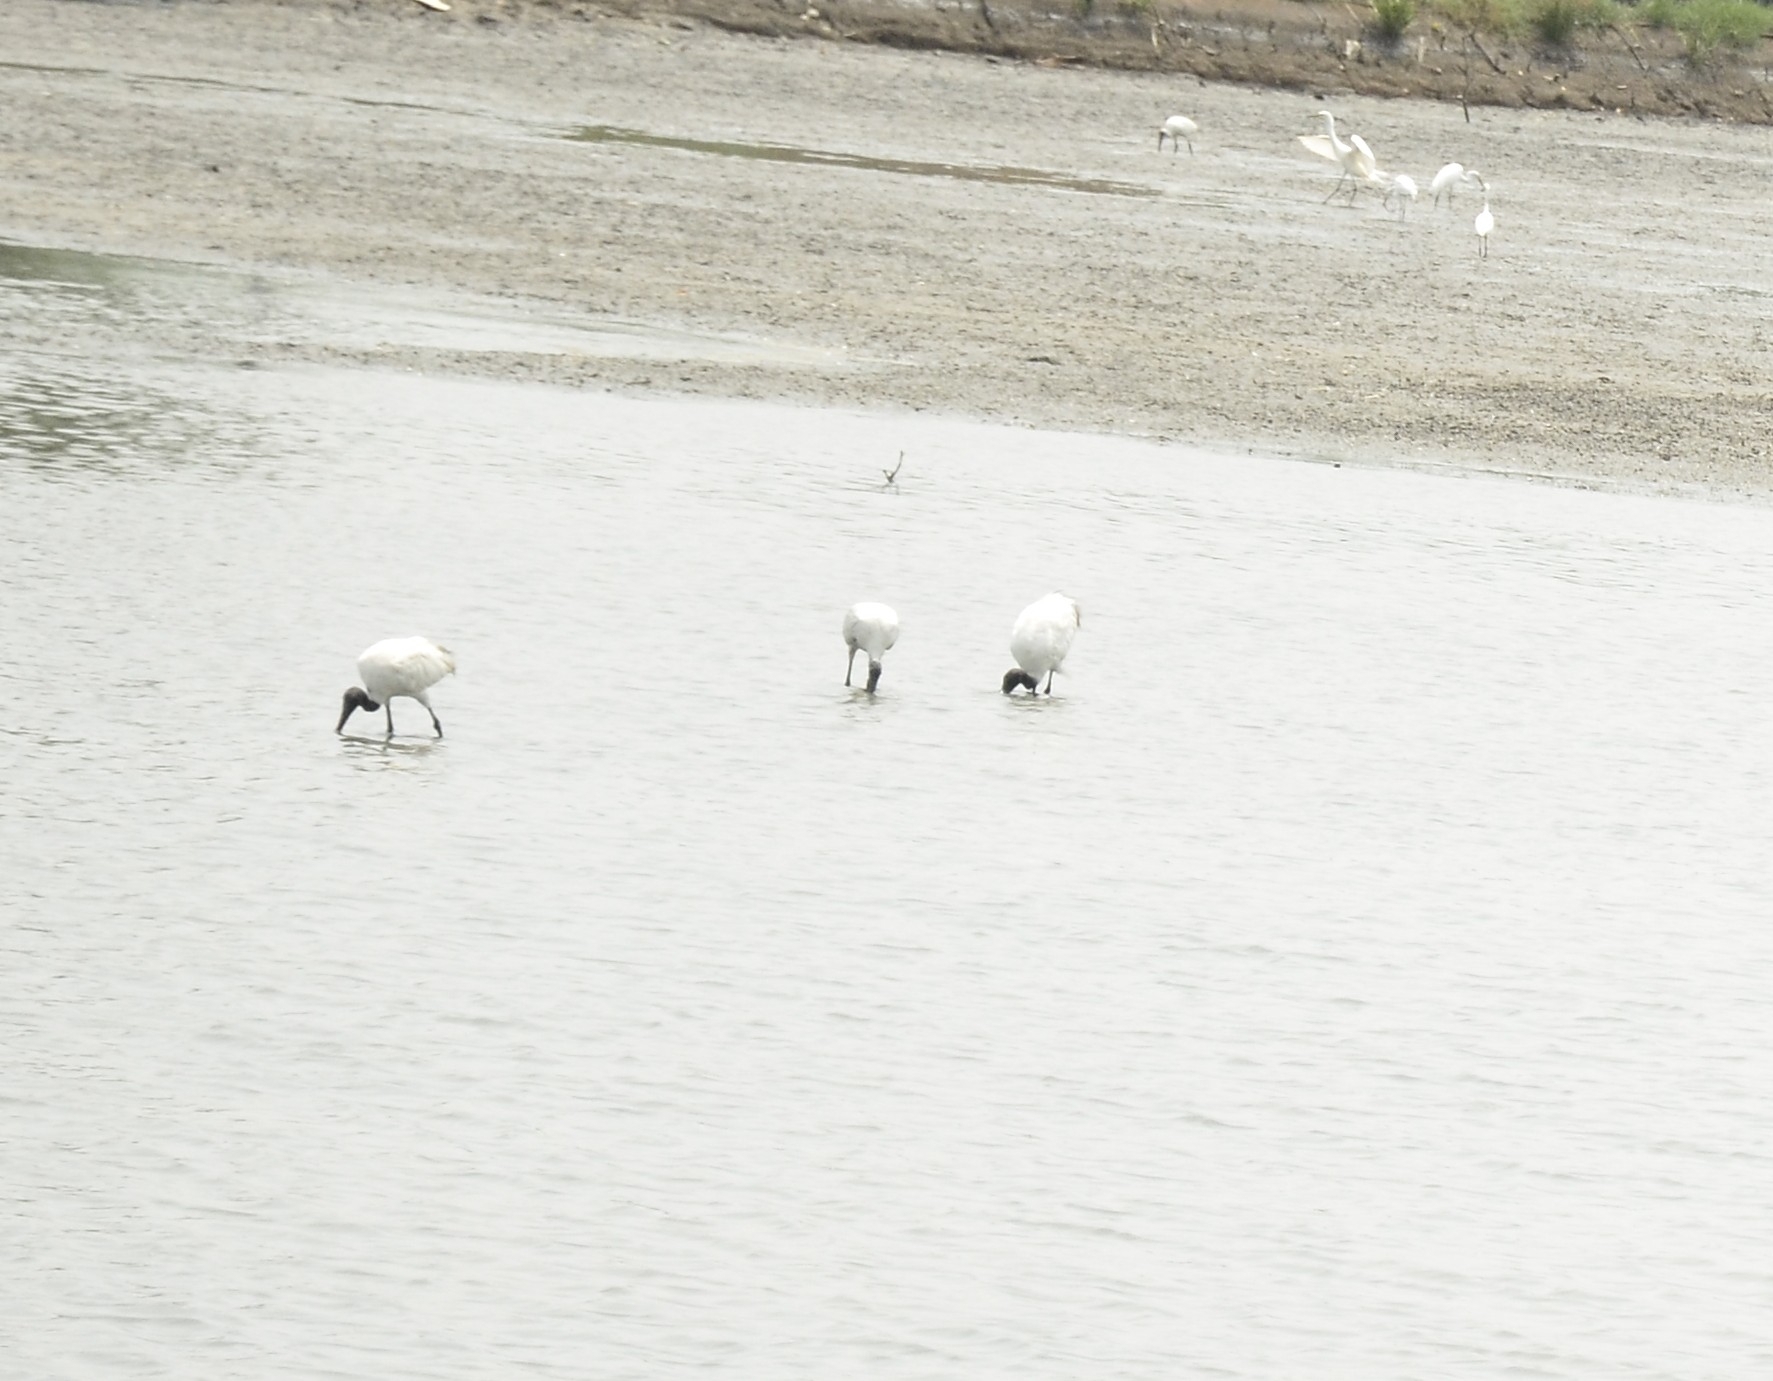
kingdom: Animalia
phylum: Chordata
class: Aves
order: Pelecaniformes
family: Threskiornithidae
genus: Threskiornis
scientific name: Threskiornis melanocephalus
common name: Black-headed ibis
